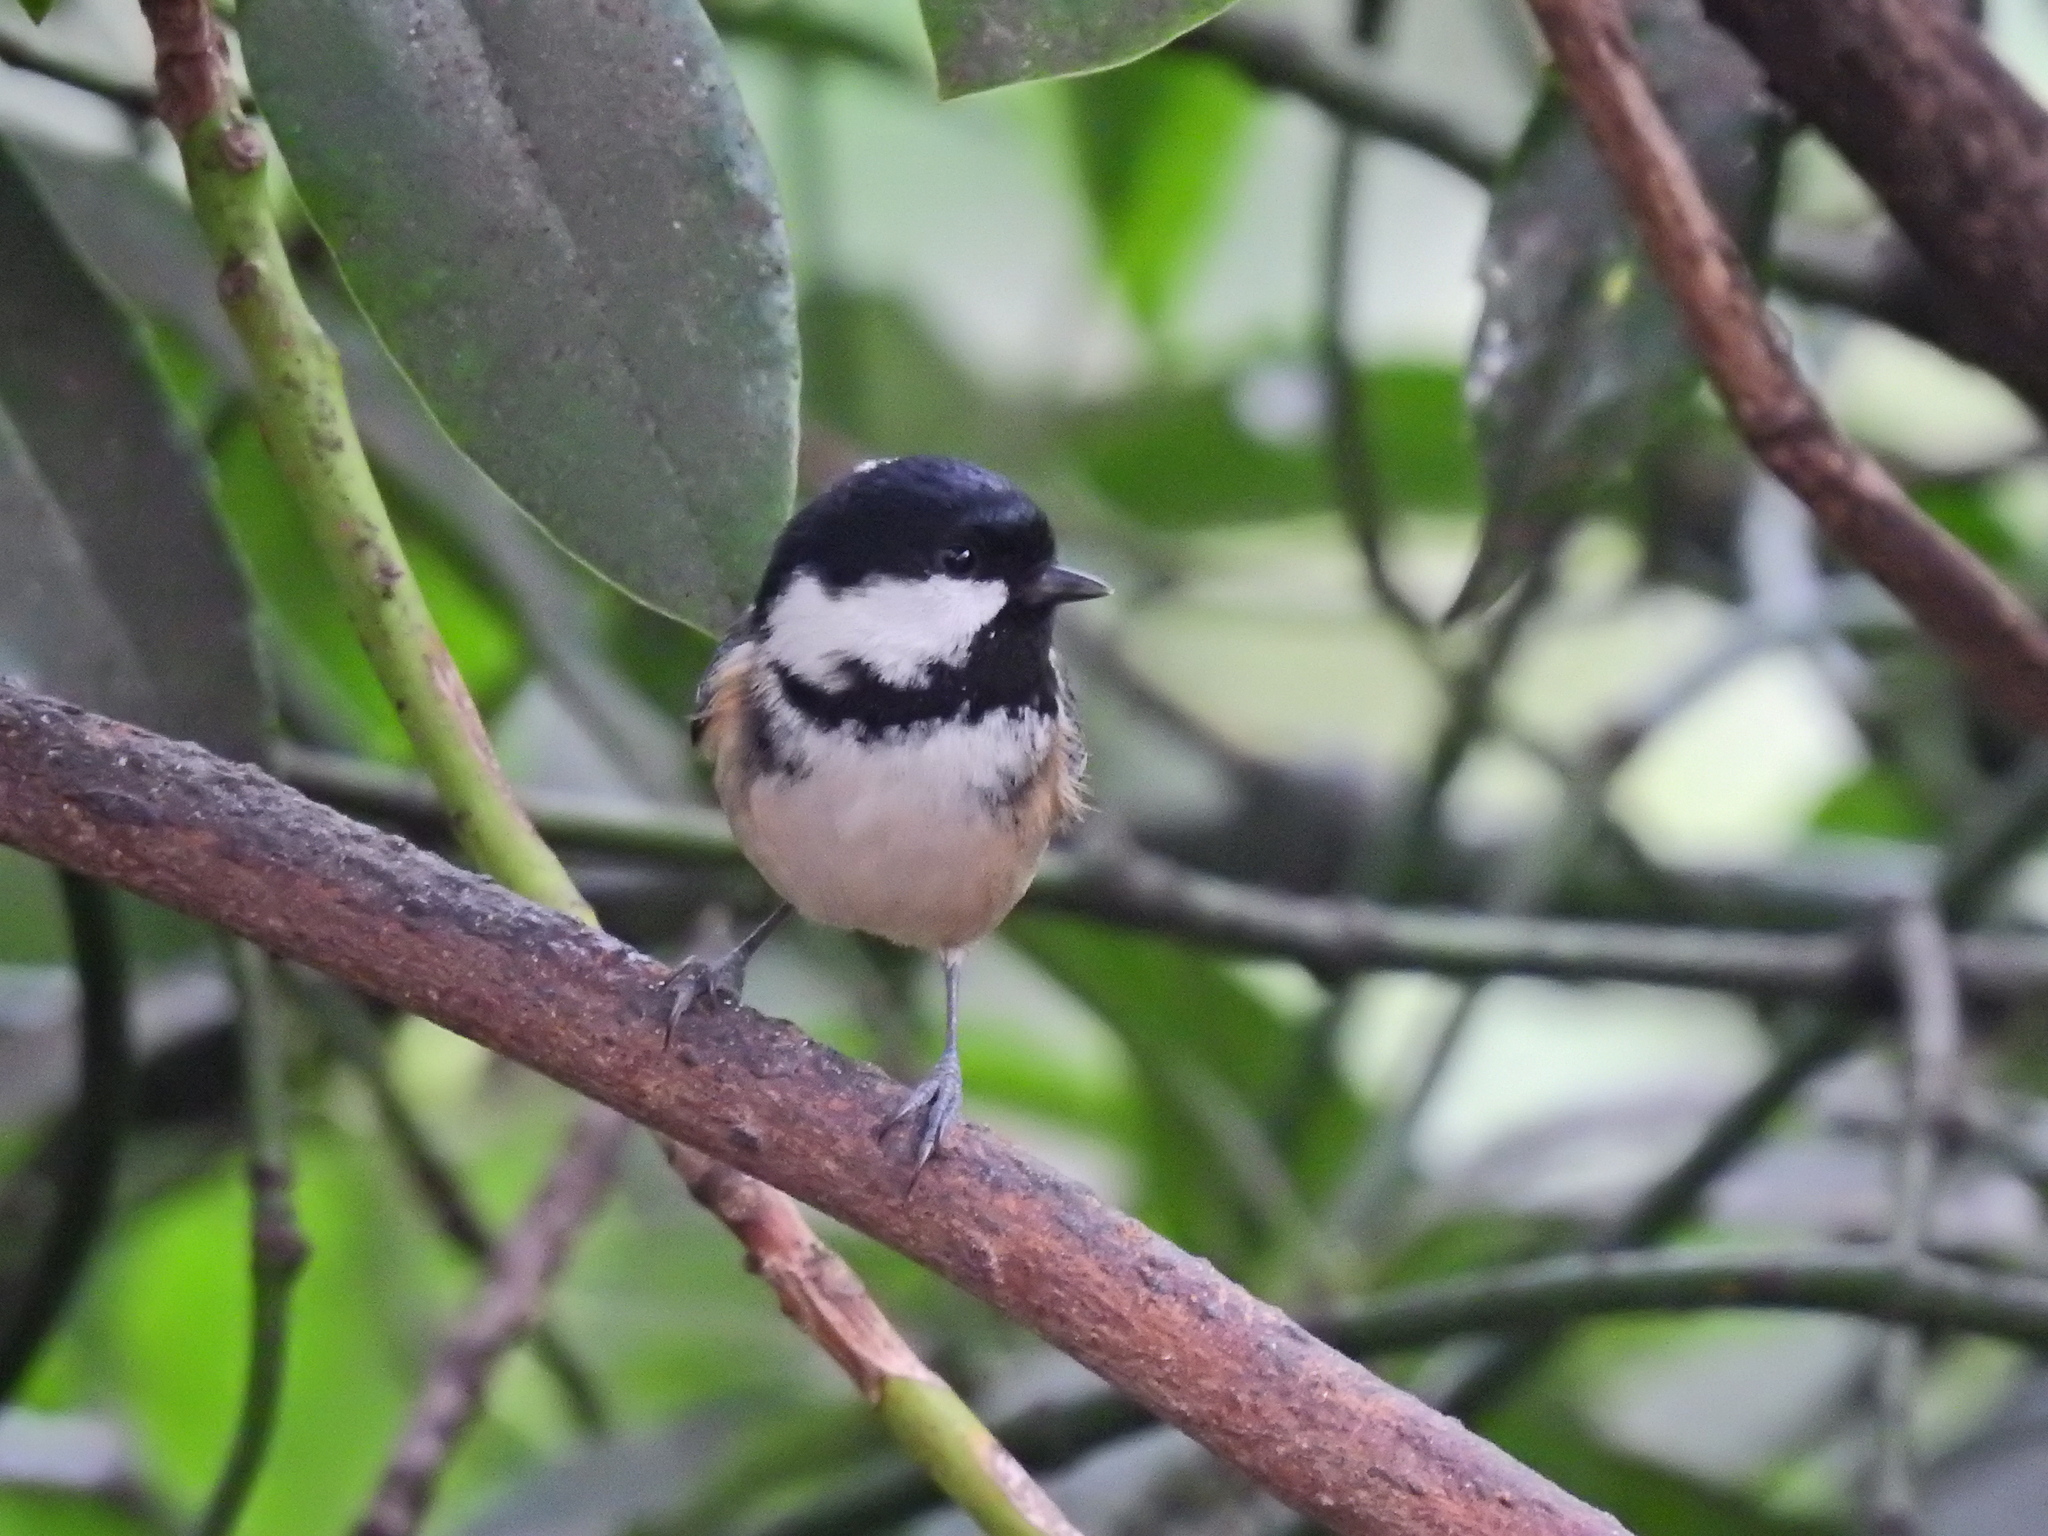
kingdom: Animalia
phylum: Chordata
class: Aves
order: Passeriformes
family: Paridae
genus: Periparus
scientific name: Periparus ater
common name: Coal tit
